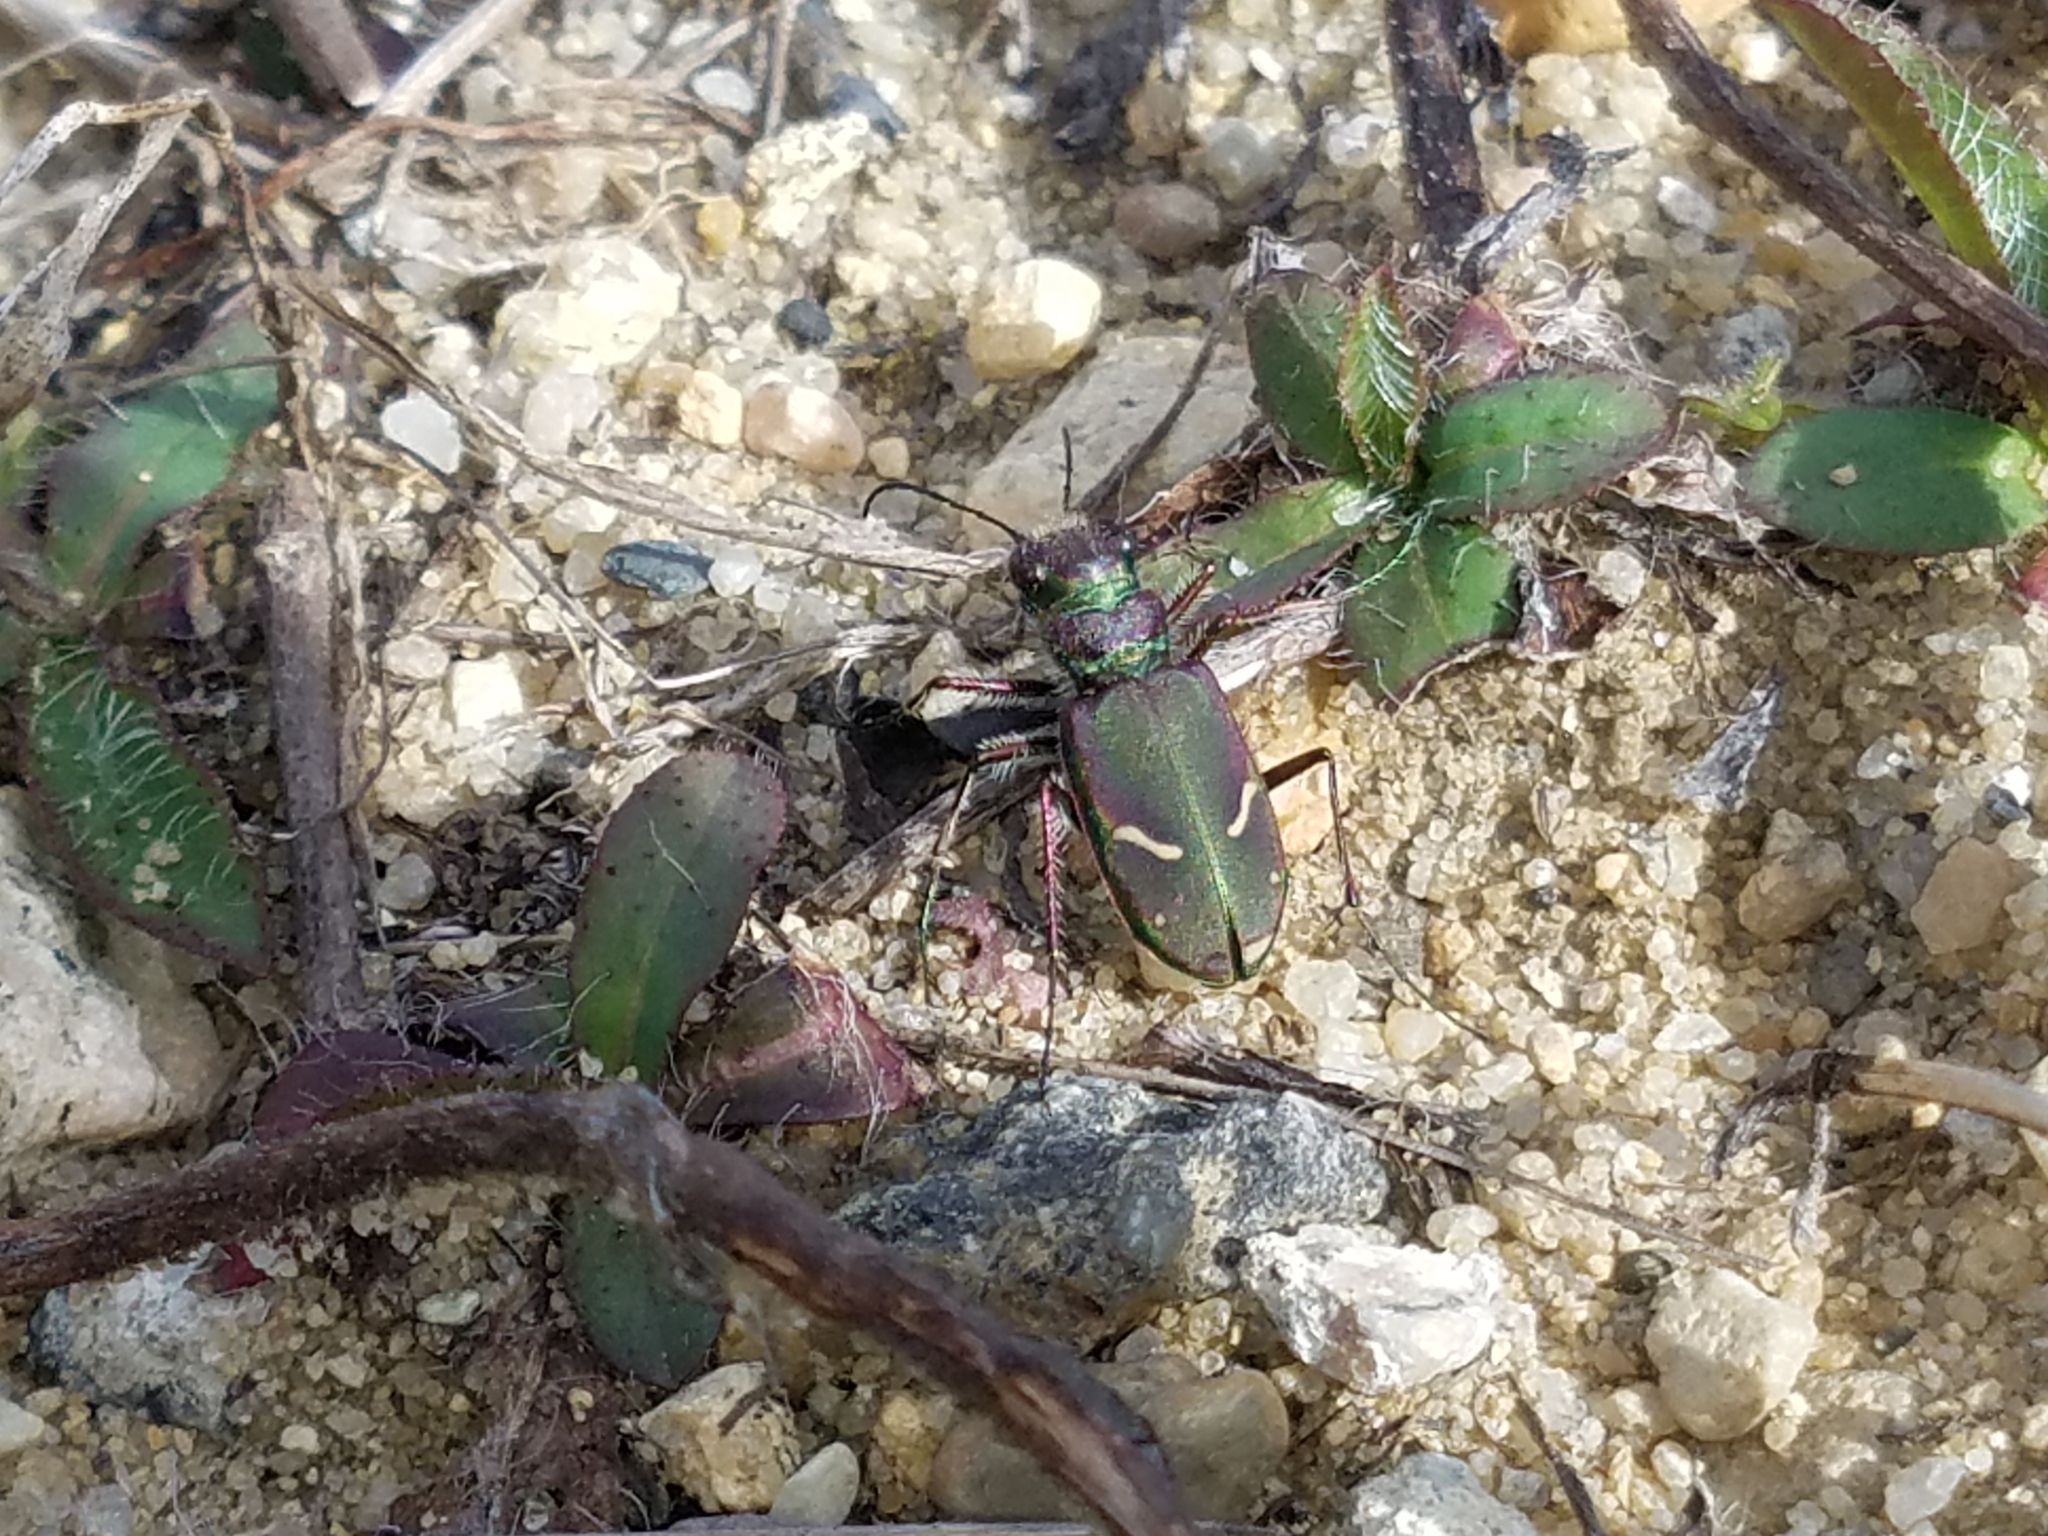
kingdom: Animalia
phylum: Arthropoda
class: Insecta
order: Coleoptera
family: Carabidae
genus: Cicindela
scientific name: Cicindela purpurea
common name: Cow path tiger beetle
